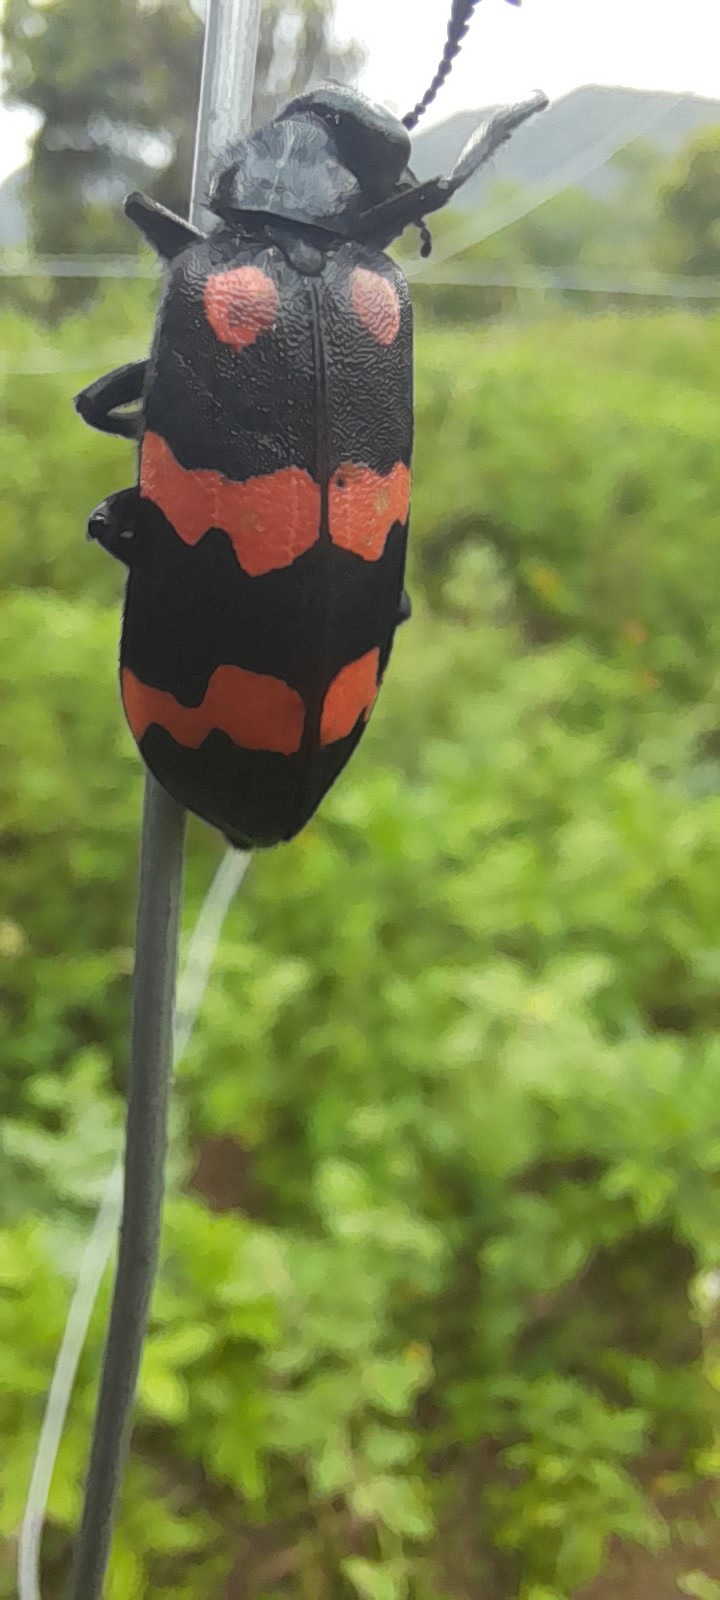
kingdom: Animalia
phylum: Arthropoda
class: Insecta
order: Coleoptera
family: Meloidae
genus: Hycleus
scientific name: Hycleus biundulatus
